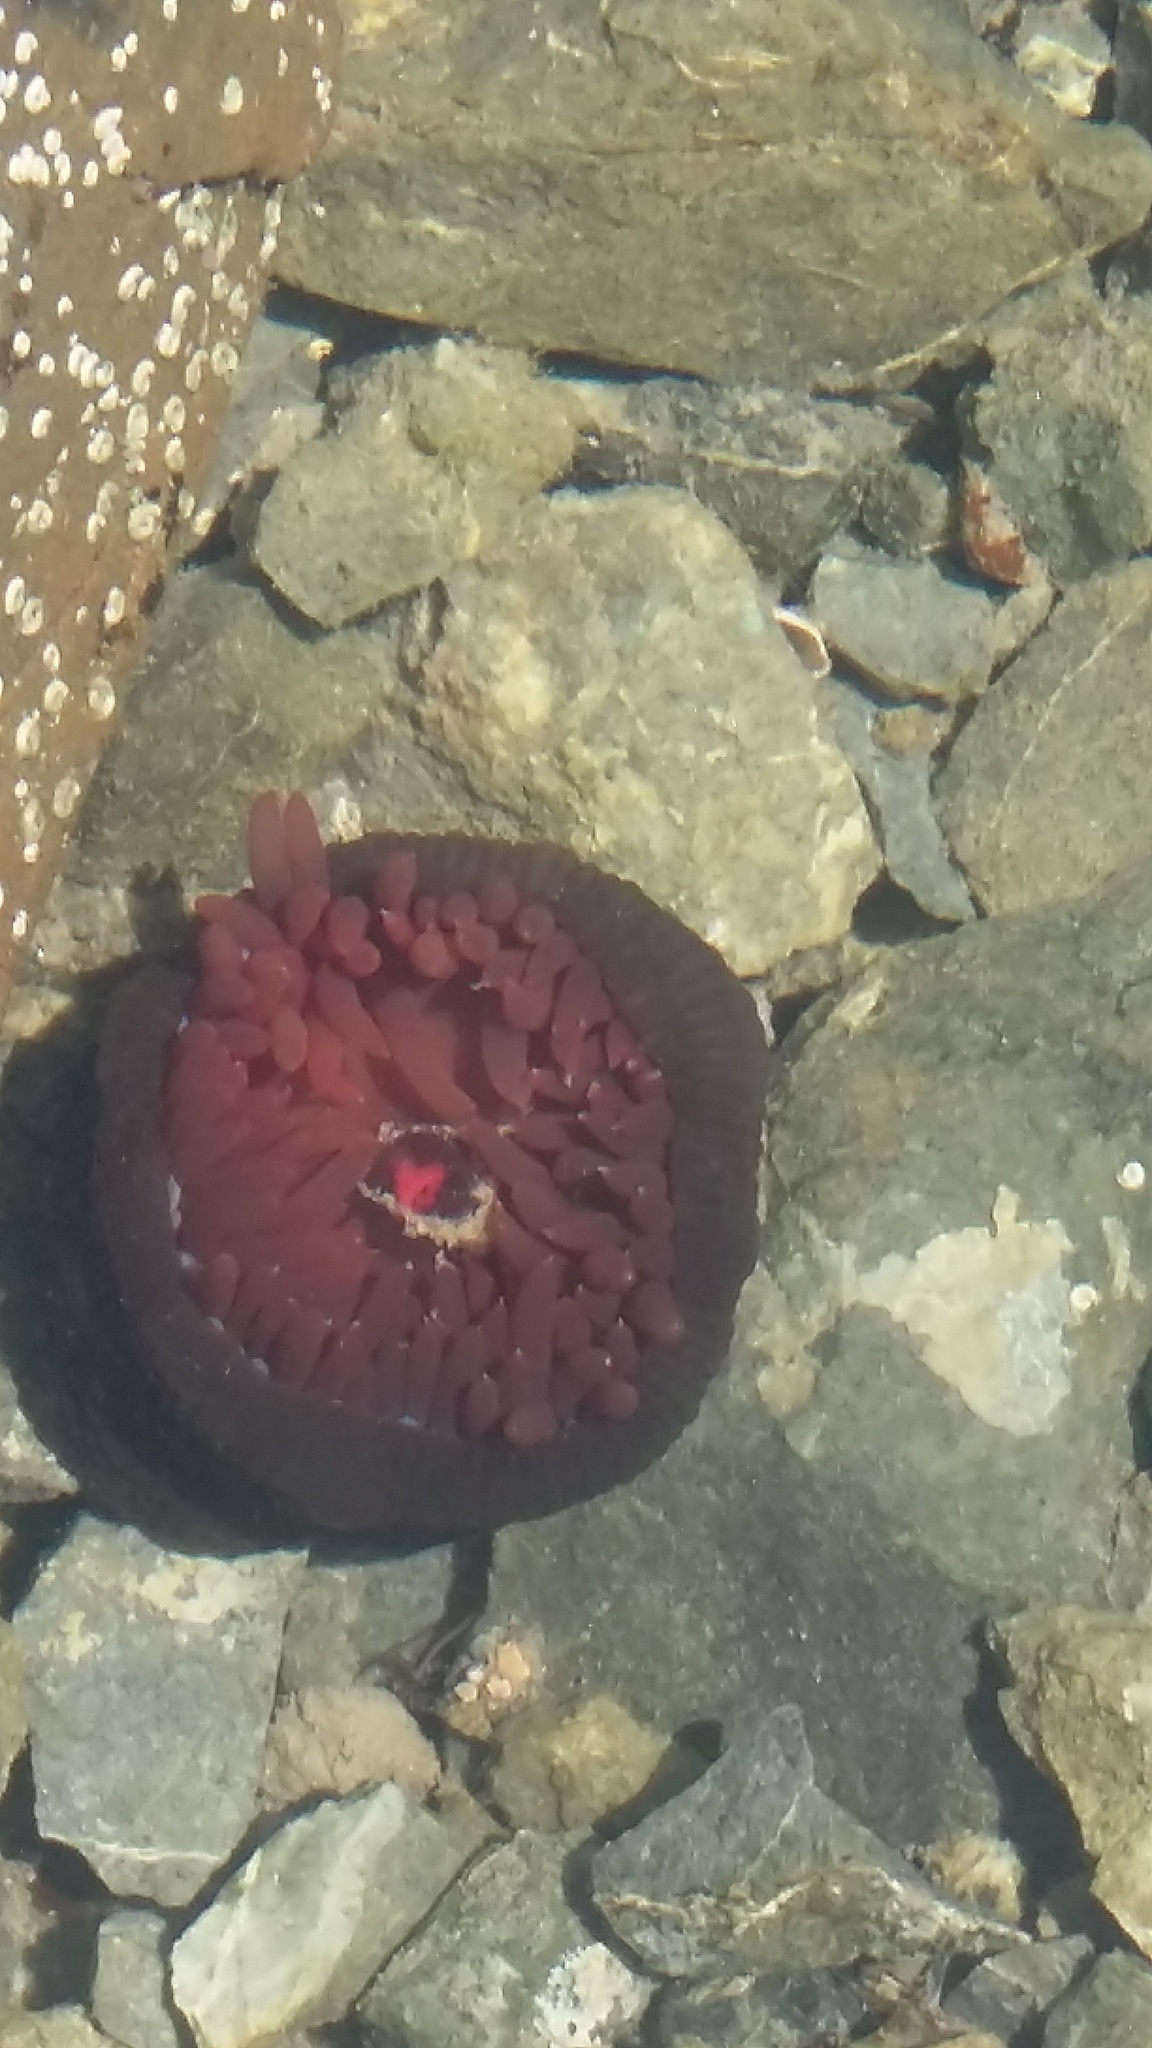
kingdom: Animalia
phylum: Cnidaria
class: Anthozoa
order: Actiniaria
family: Actiniidae
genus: Actinia
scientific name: Actinia tenebrosa
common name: Waratah anemone
